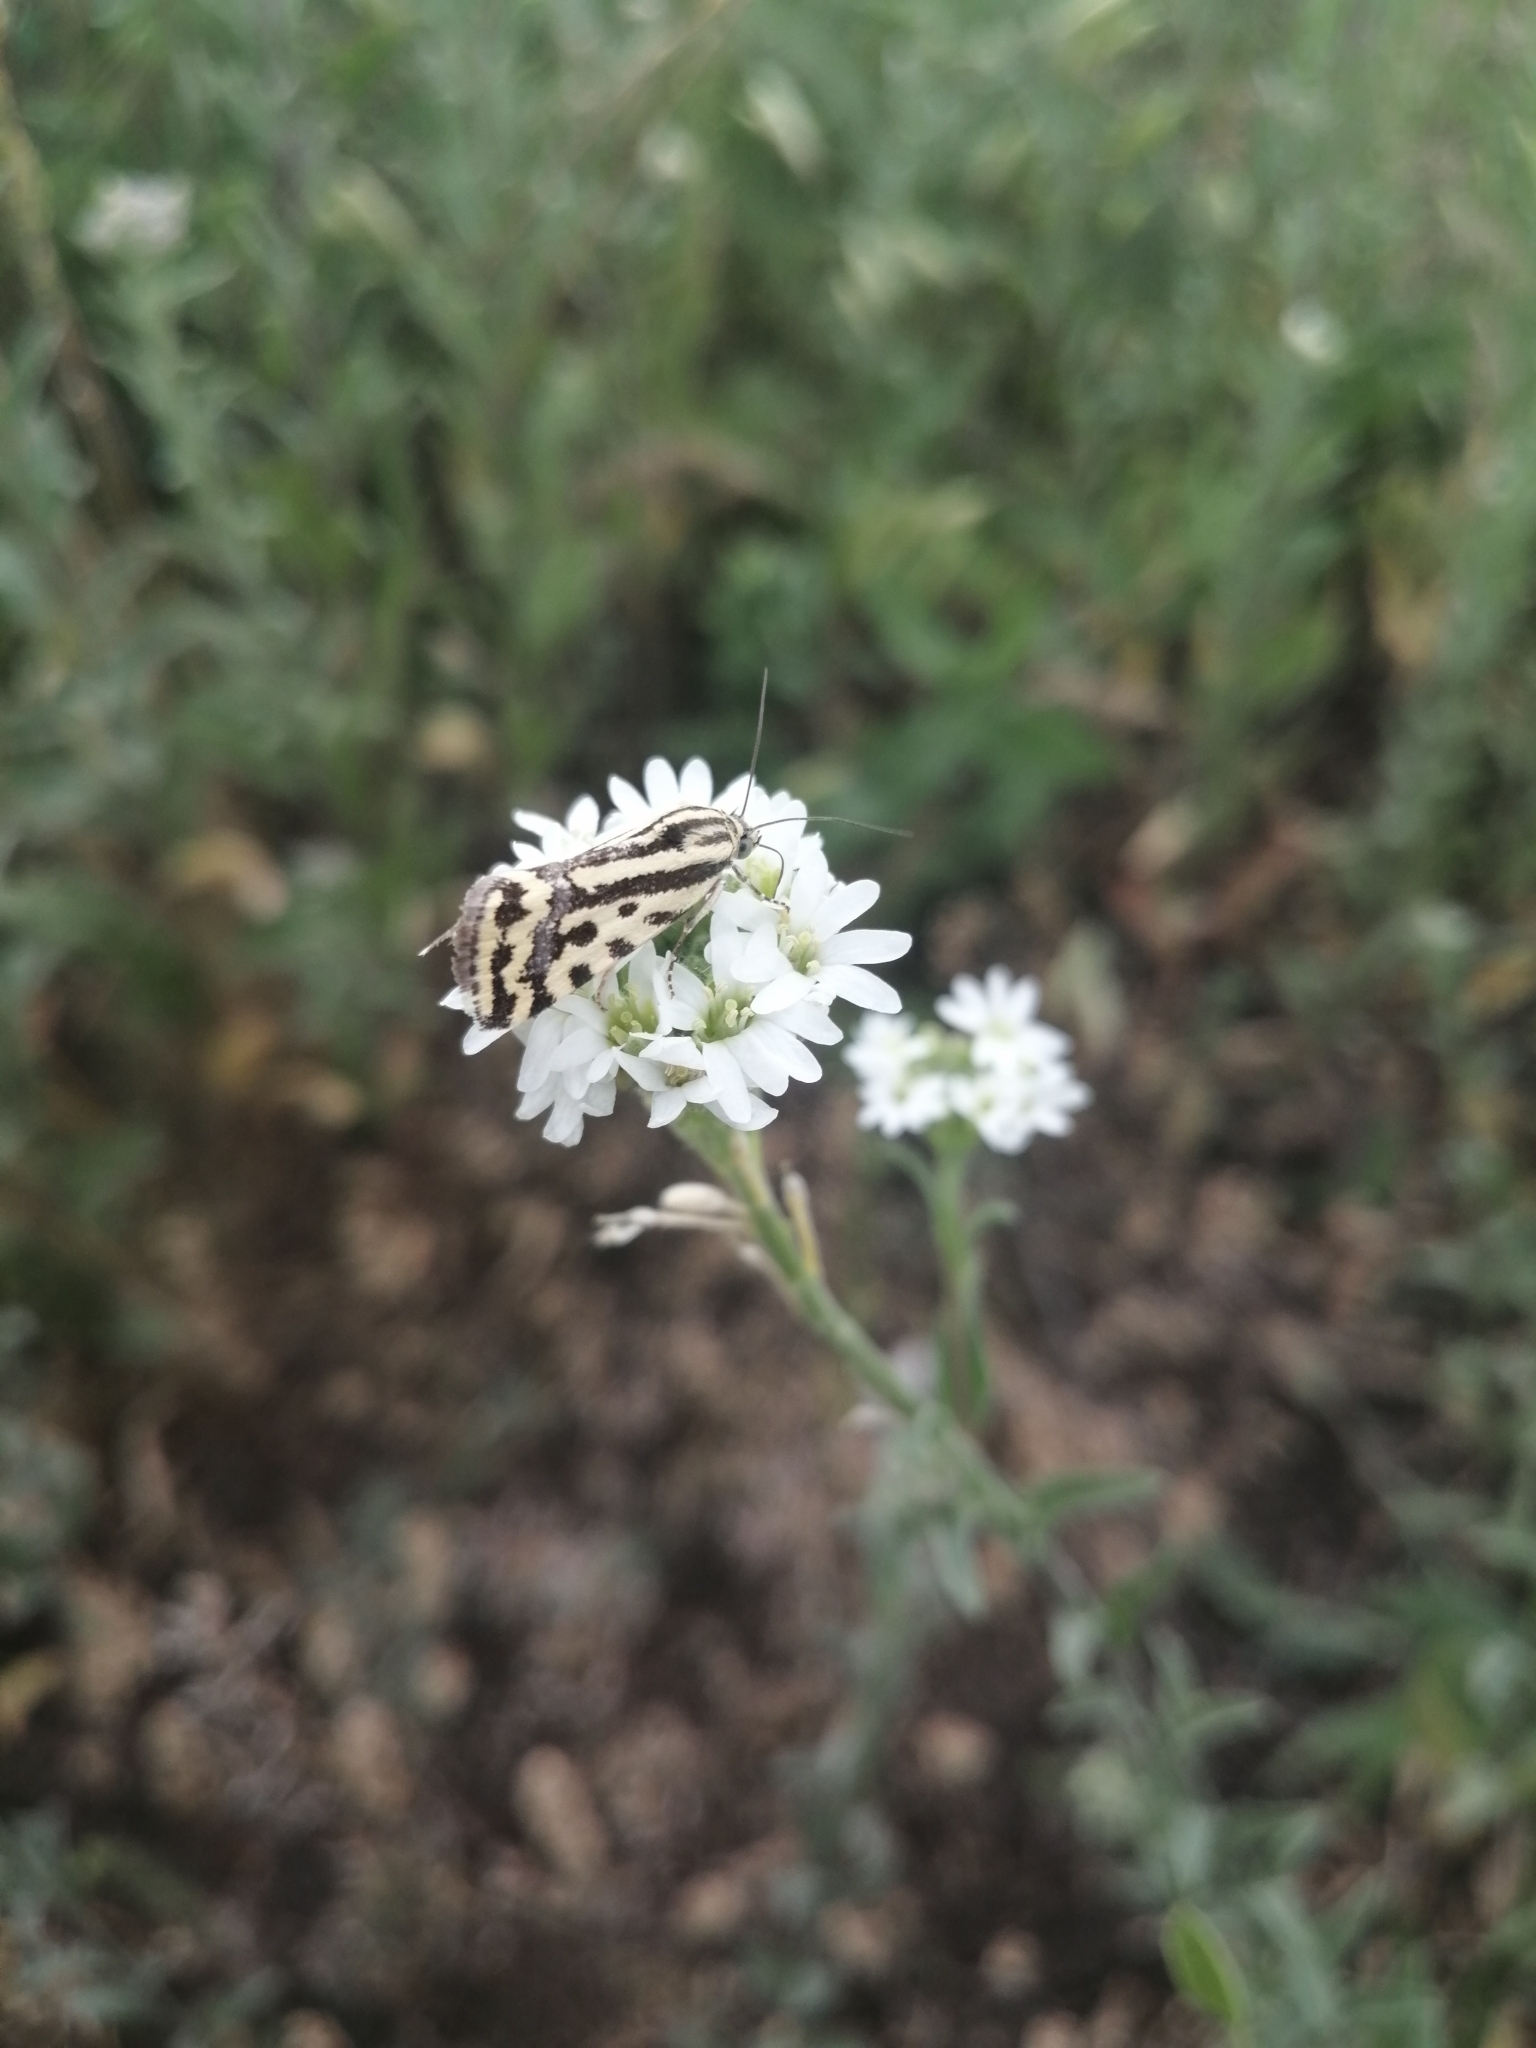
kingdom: Animalia
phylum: Arthropoda
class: Insecta
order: Lepidoptera
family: Noctuidae
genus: Acontia
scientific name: Acontia trabealis
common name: Spotted sulphur
